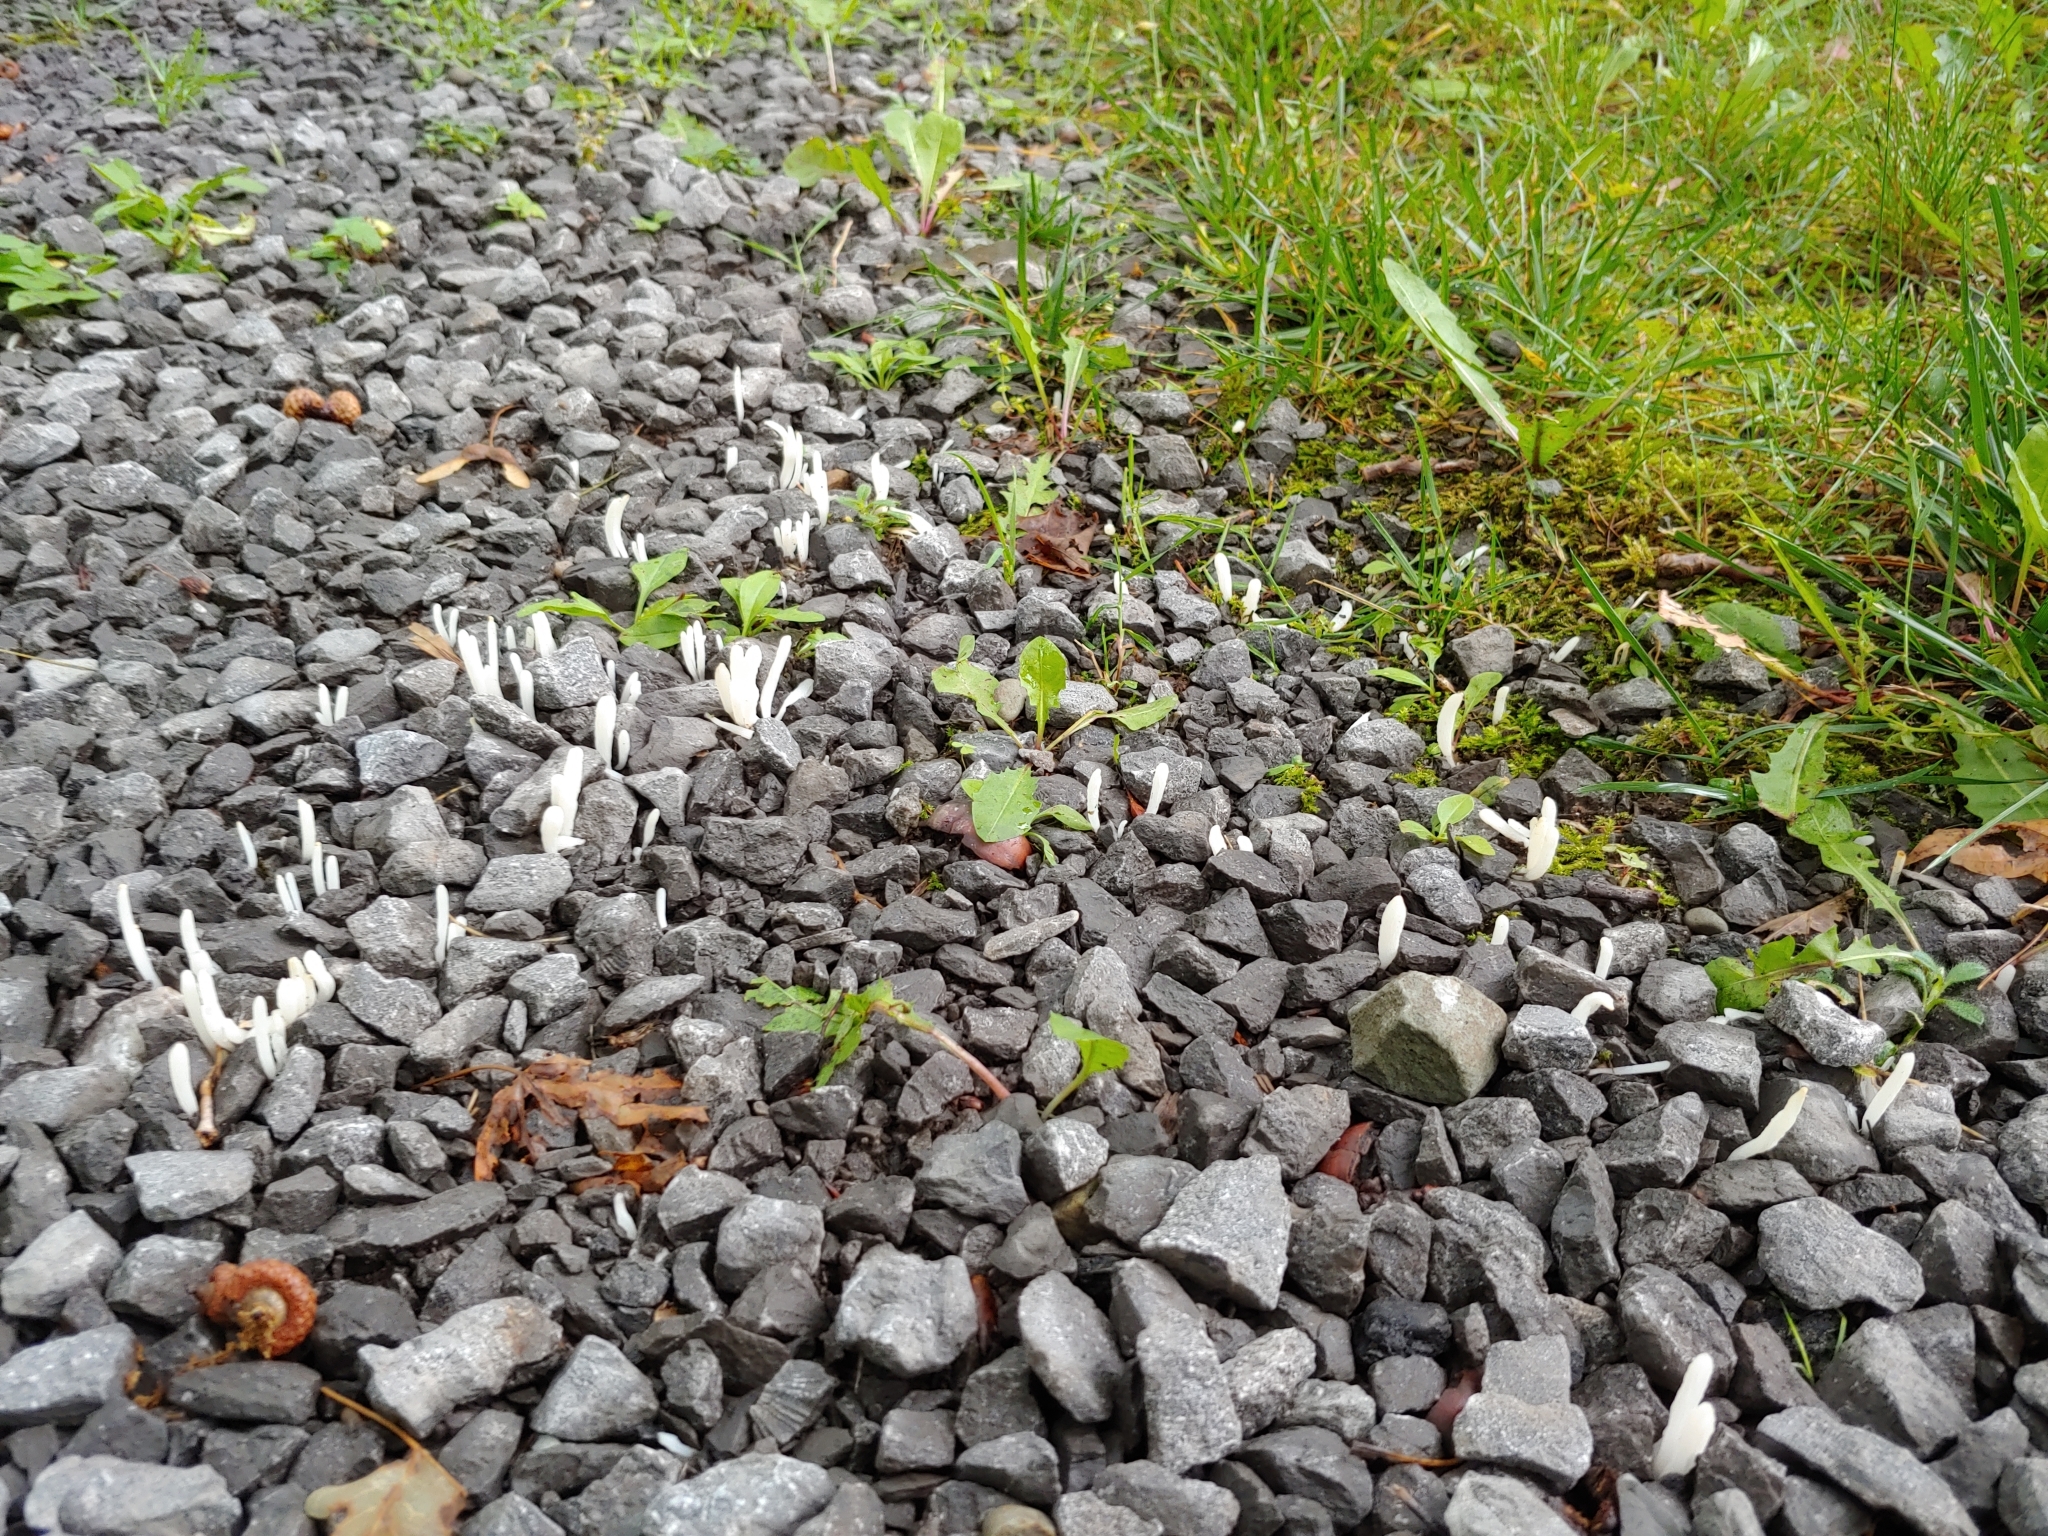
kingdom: Fungi
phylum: Basidiomycota
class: Agaricomycetes
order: Agaricales
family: Clavariaceae
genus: Clavaria
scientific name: Clavaria fragilis
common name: White spindles
